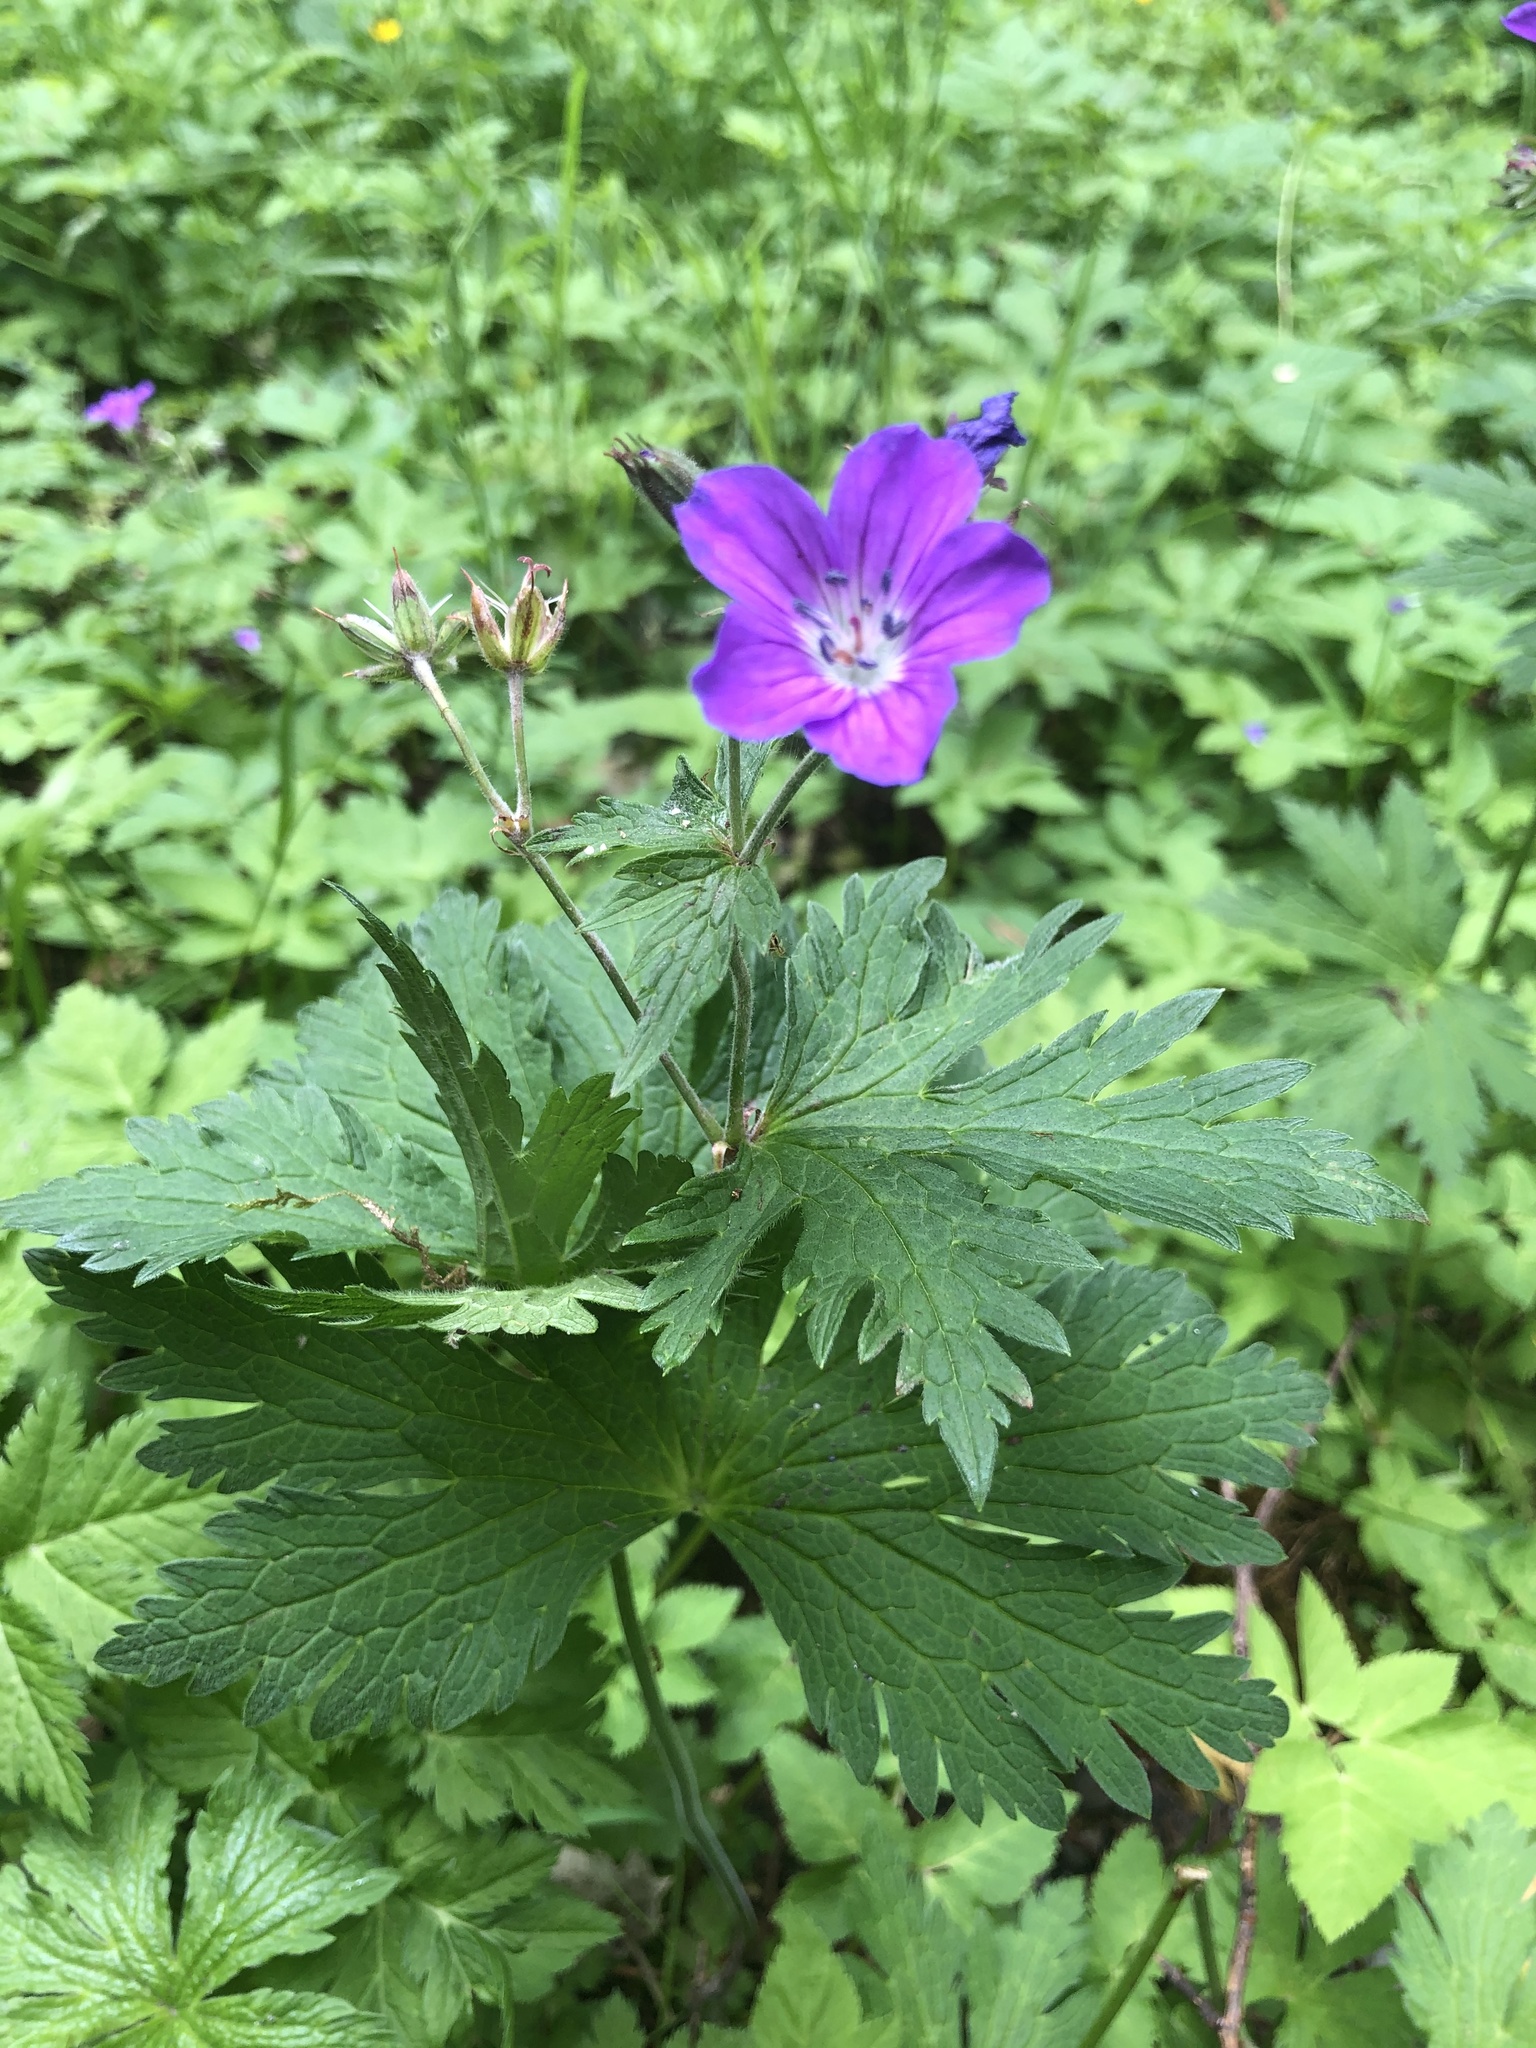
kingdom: Plantae
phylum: Tracheophyta
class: Magnoliopsida
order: Geraniales
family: Geraniaceae
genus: Geranium
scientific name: Geranium sylvaticum
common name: Wood crane's-bill
